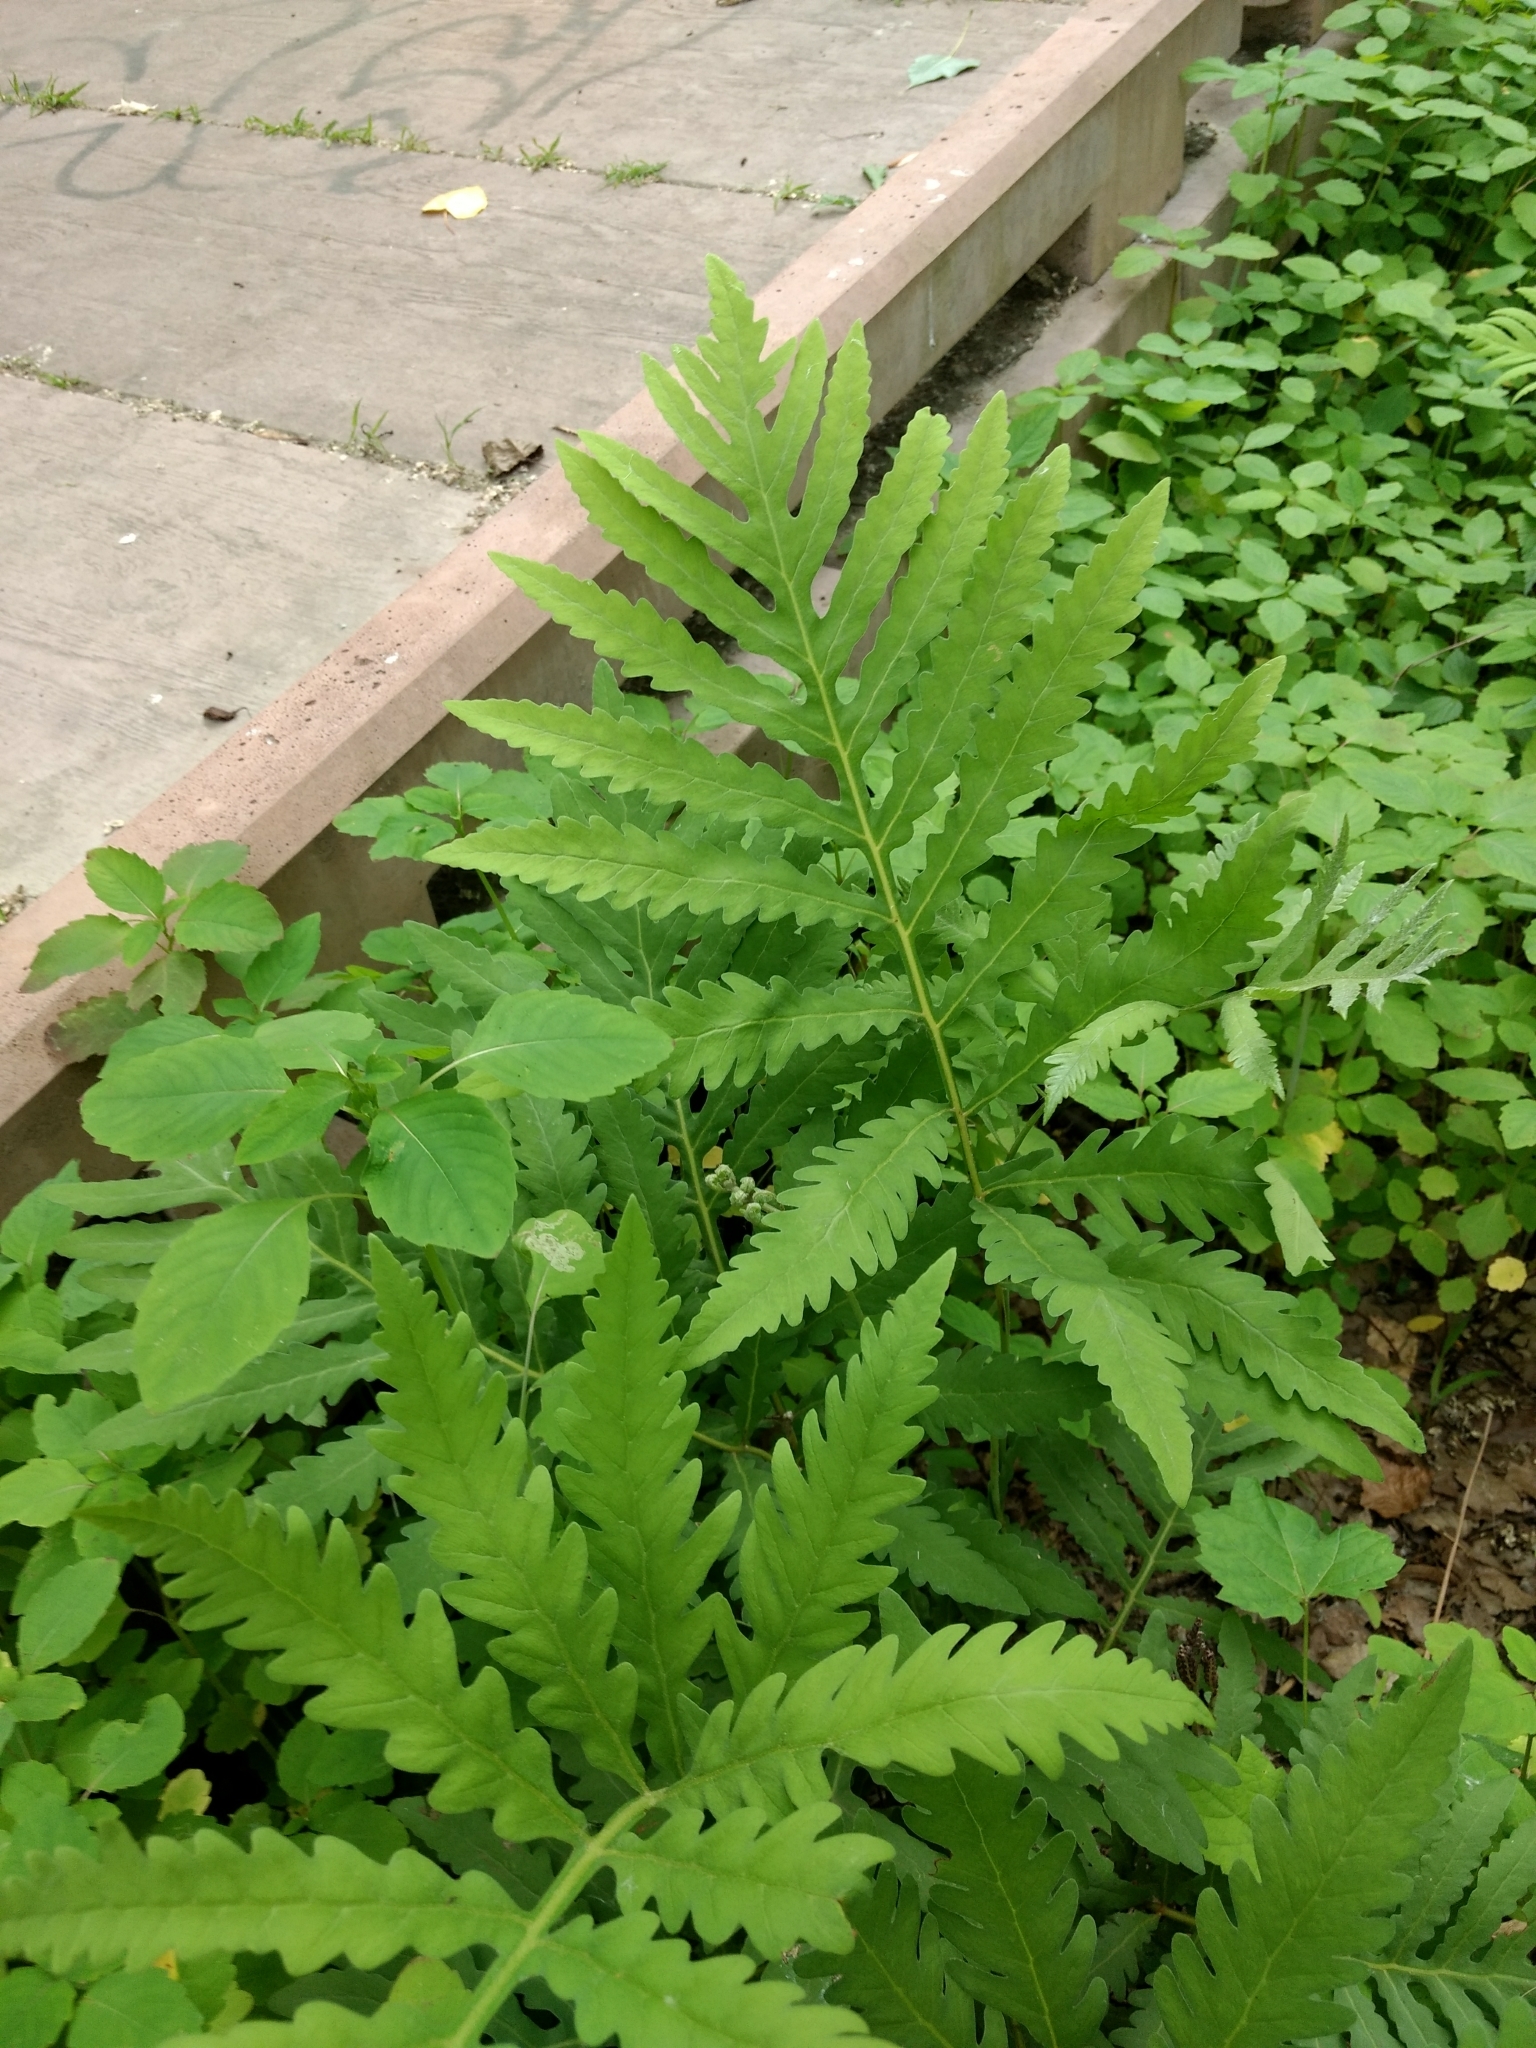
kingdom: Plantae
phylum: Tracheophyta
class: Polypodiopsida
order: Polypodiales
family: Onocleaceae
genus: Onoclea
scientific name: Onoclea sensibilis
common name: Sensitive fern
